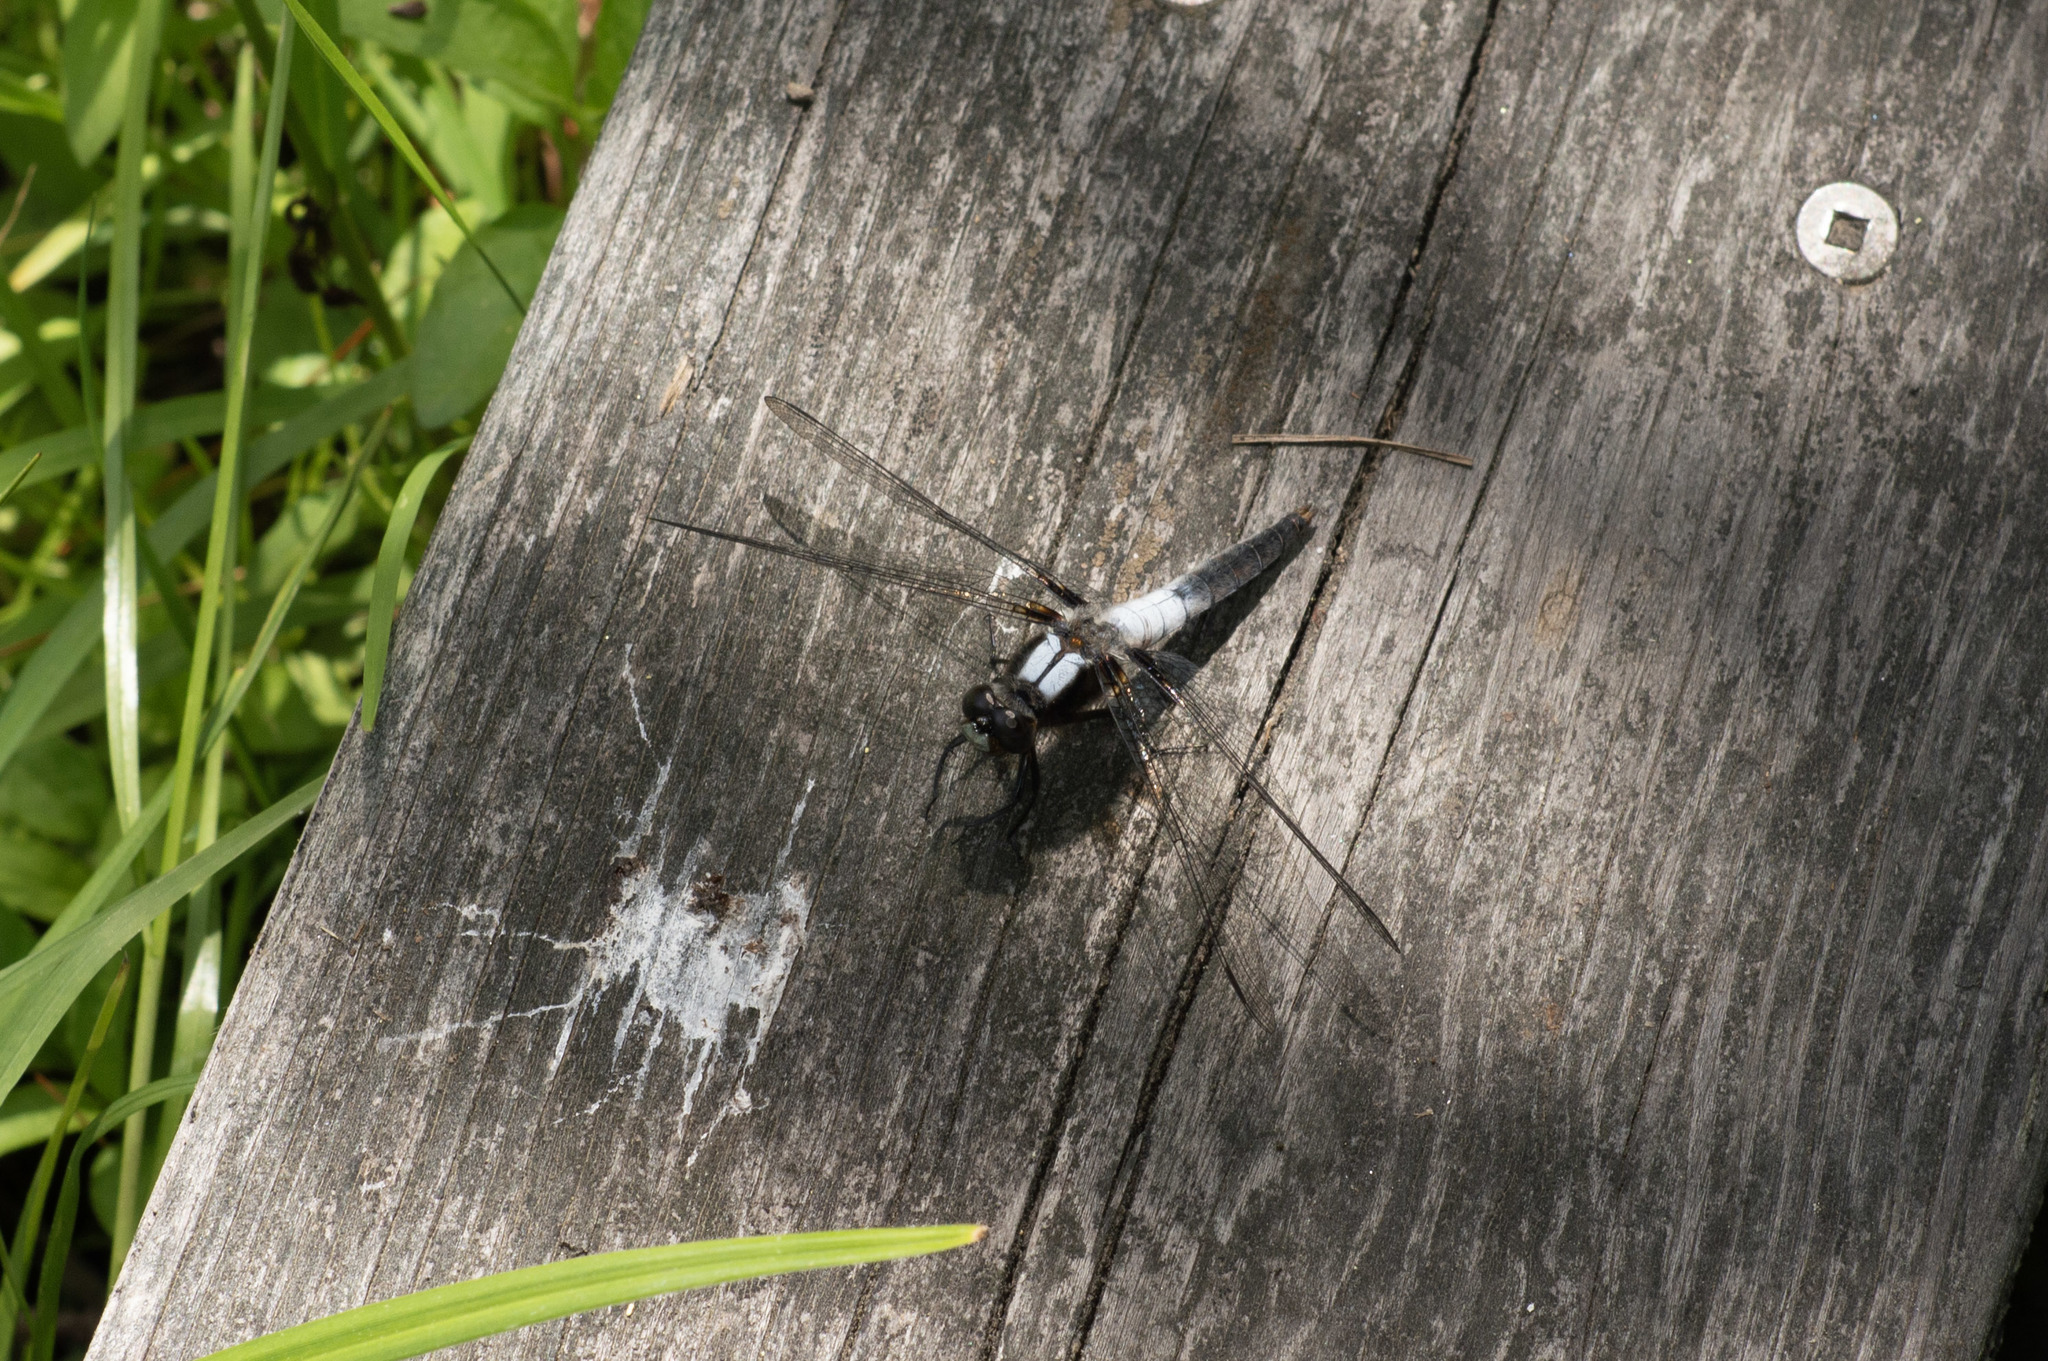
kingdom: Animalia
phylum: Arthropoda
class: Insecta
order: Odonata
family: Libellulidae
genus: Ladona
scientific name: Ladona julia
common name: Chalk-fronted corporal
